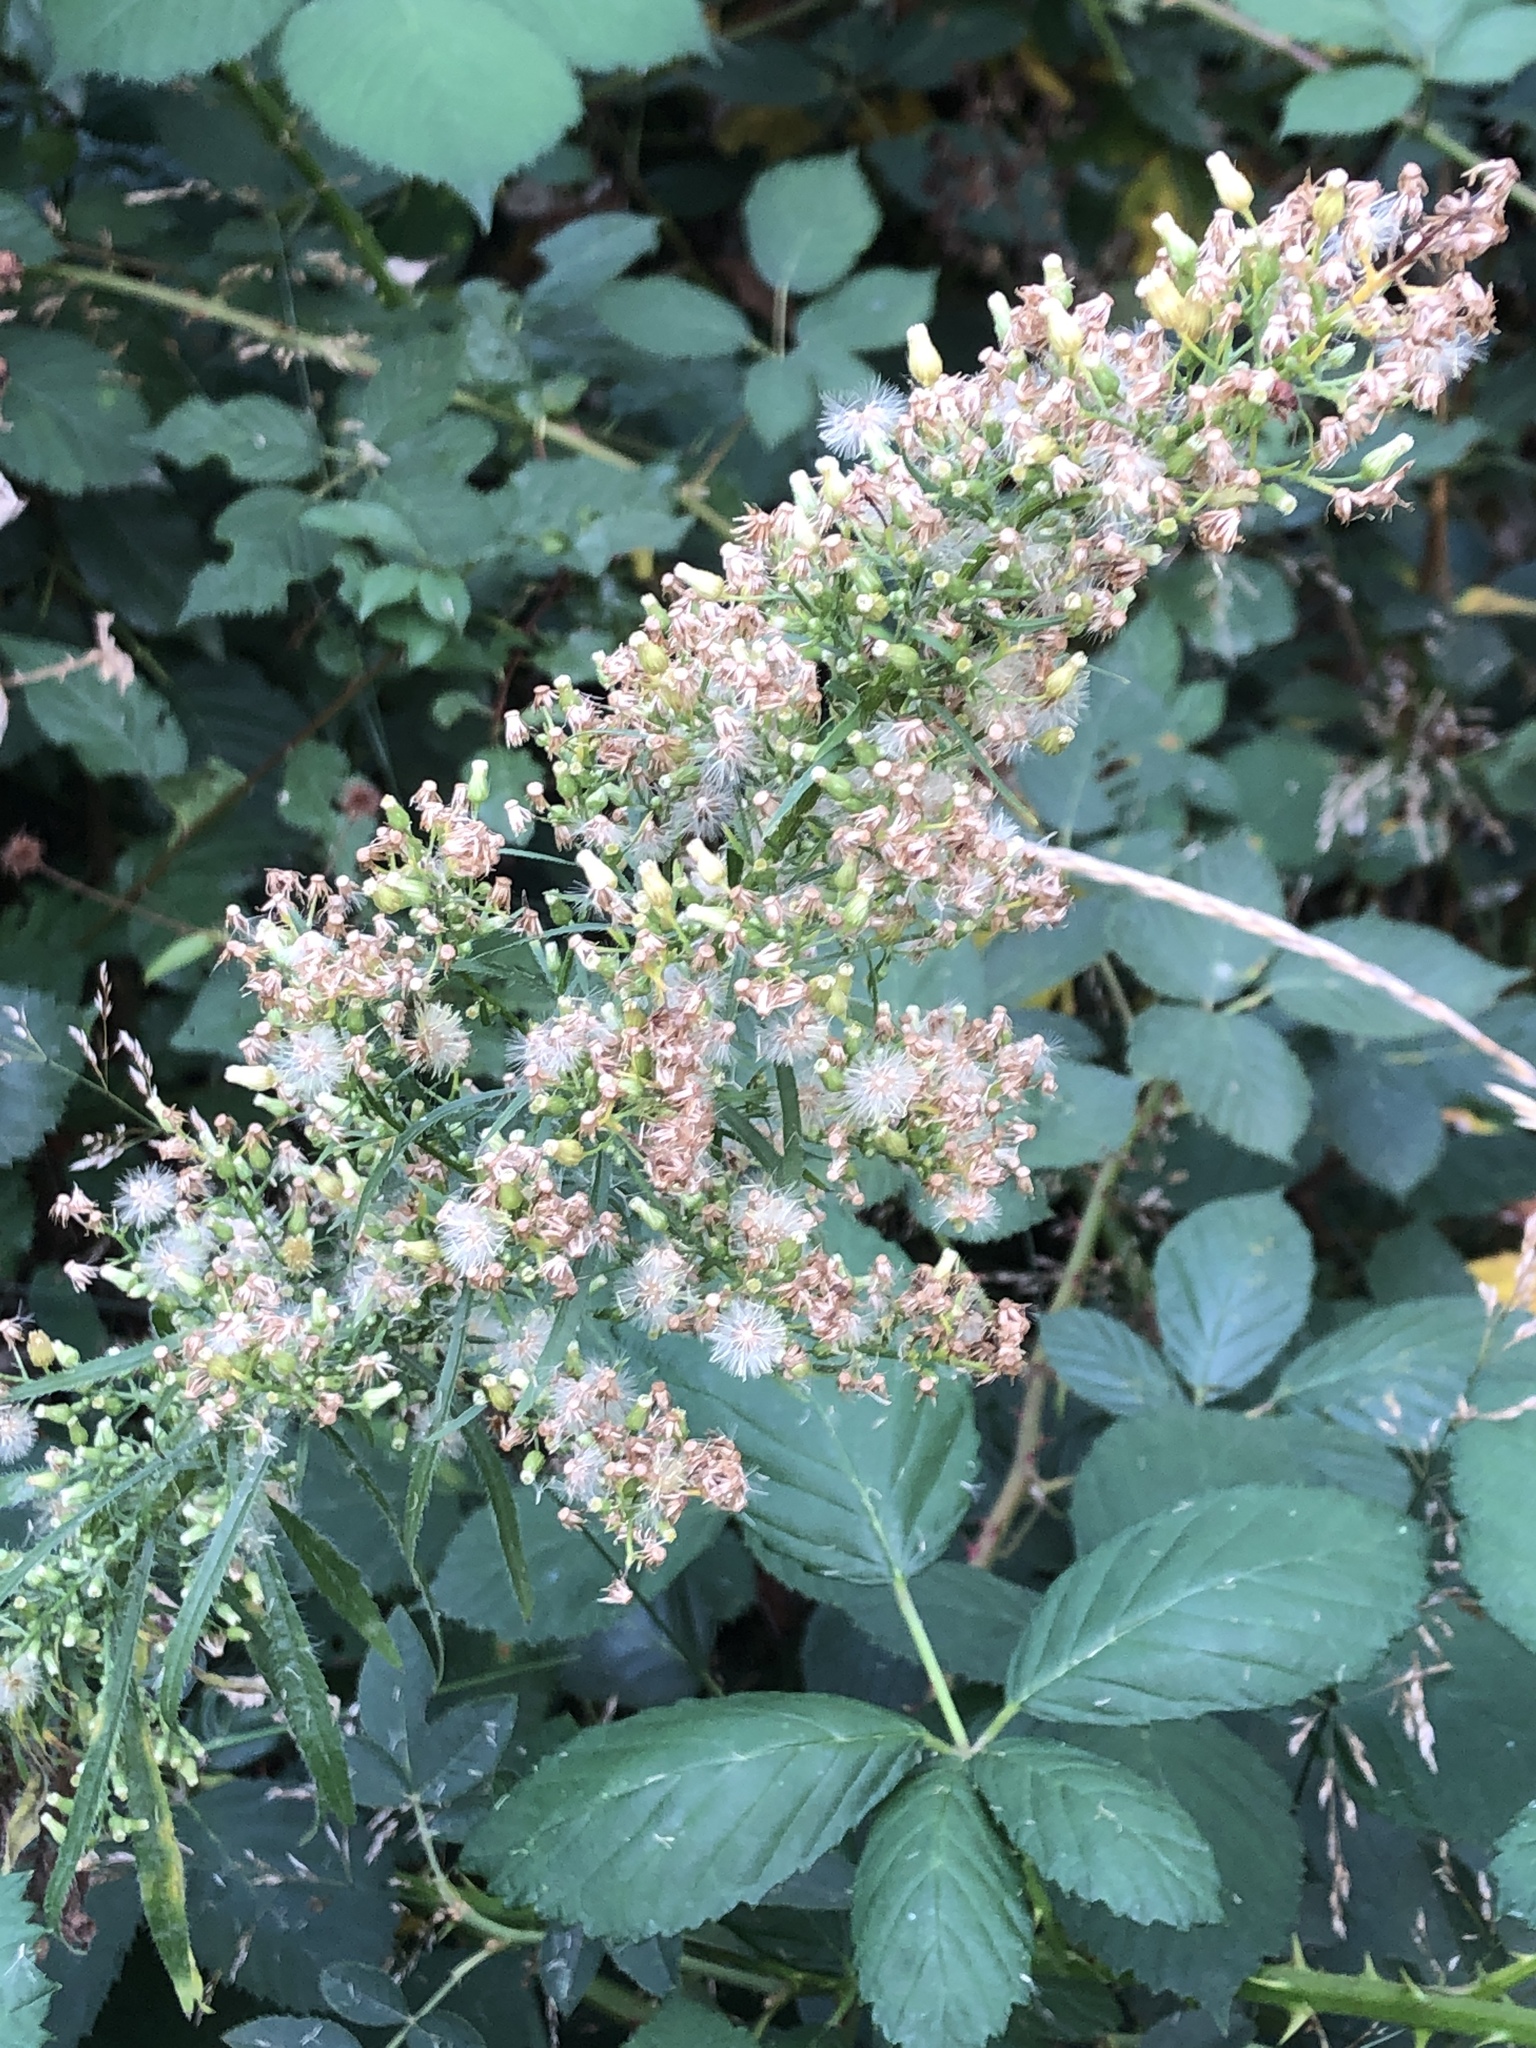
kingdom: Plantae
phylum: Tracheophyta
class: Magnoliopsida
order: Asterales
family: Asteraceae
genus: Erigeron
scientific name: Erigeron canadensis
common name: Canadian fleabane
